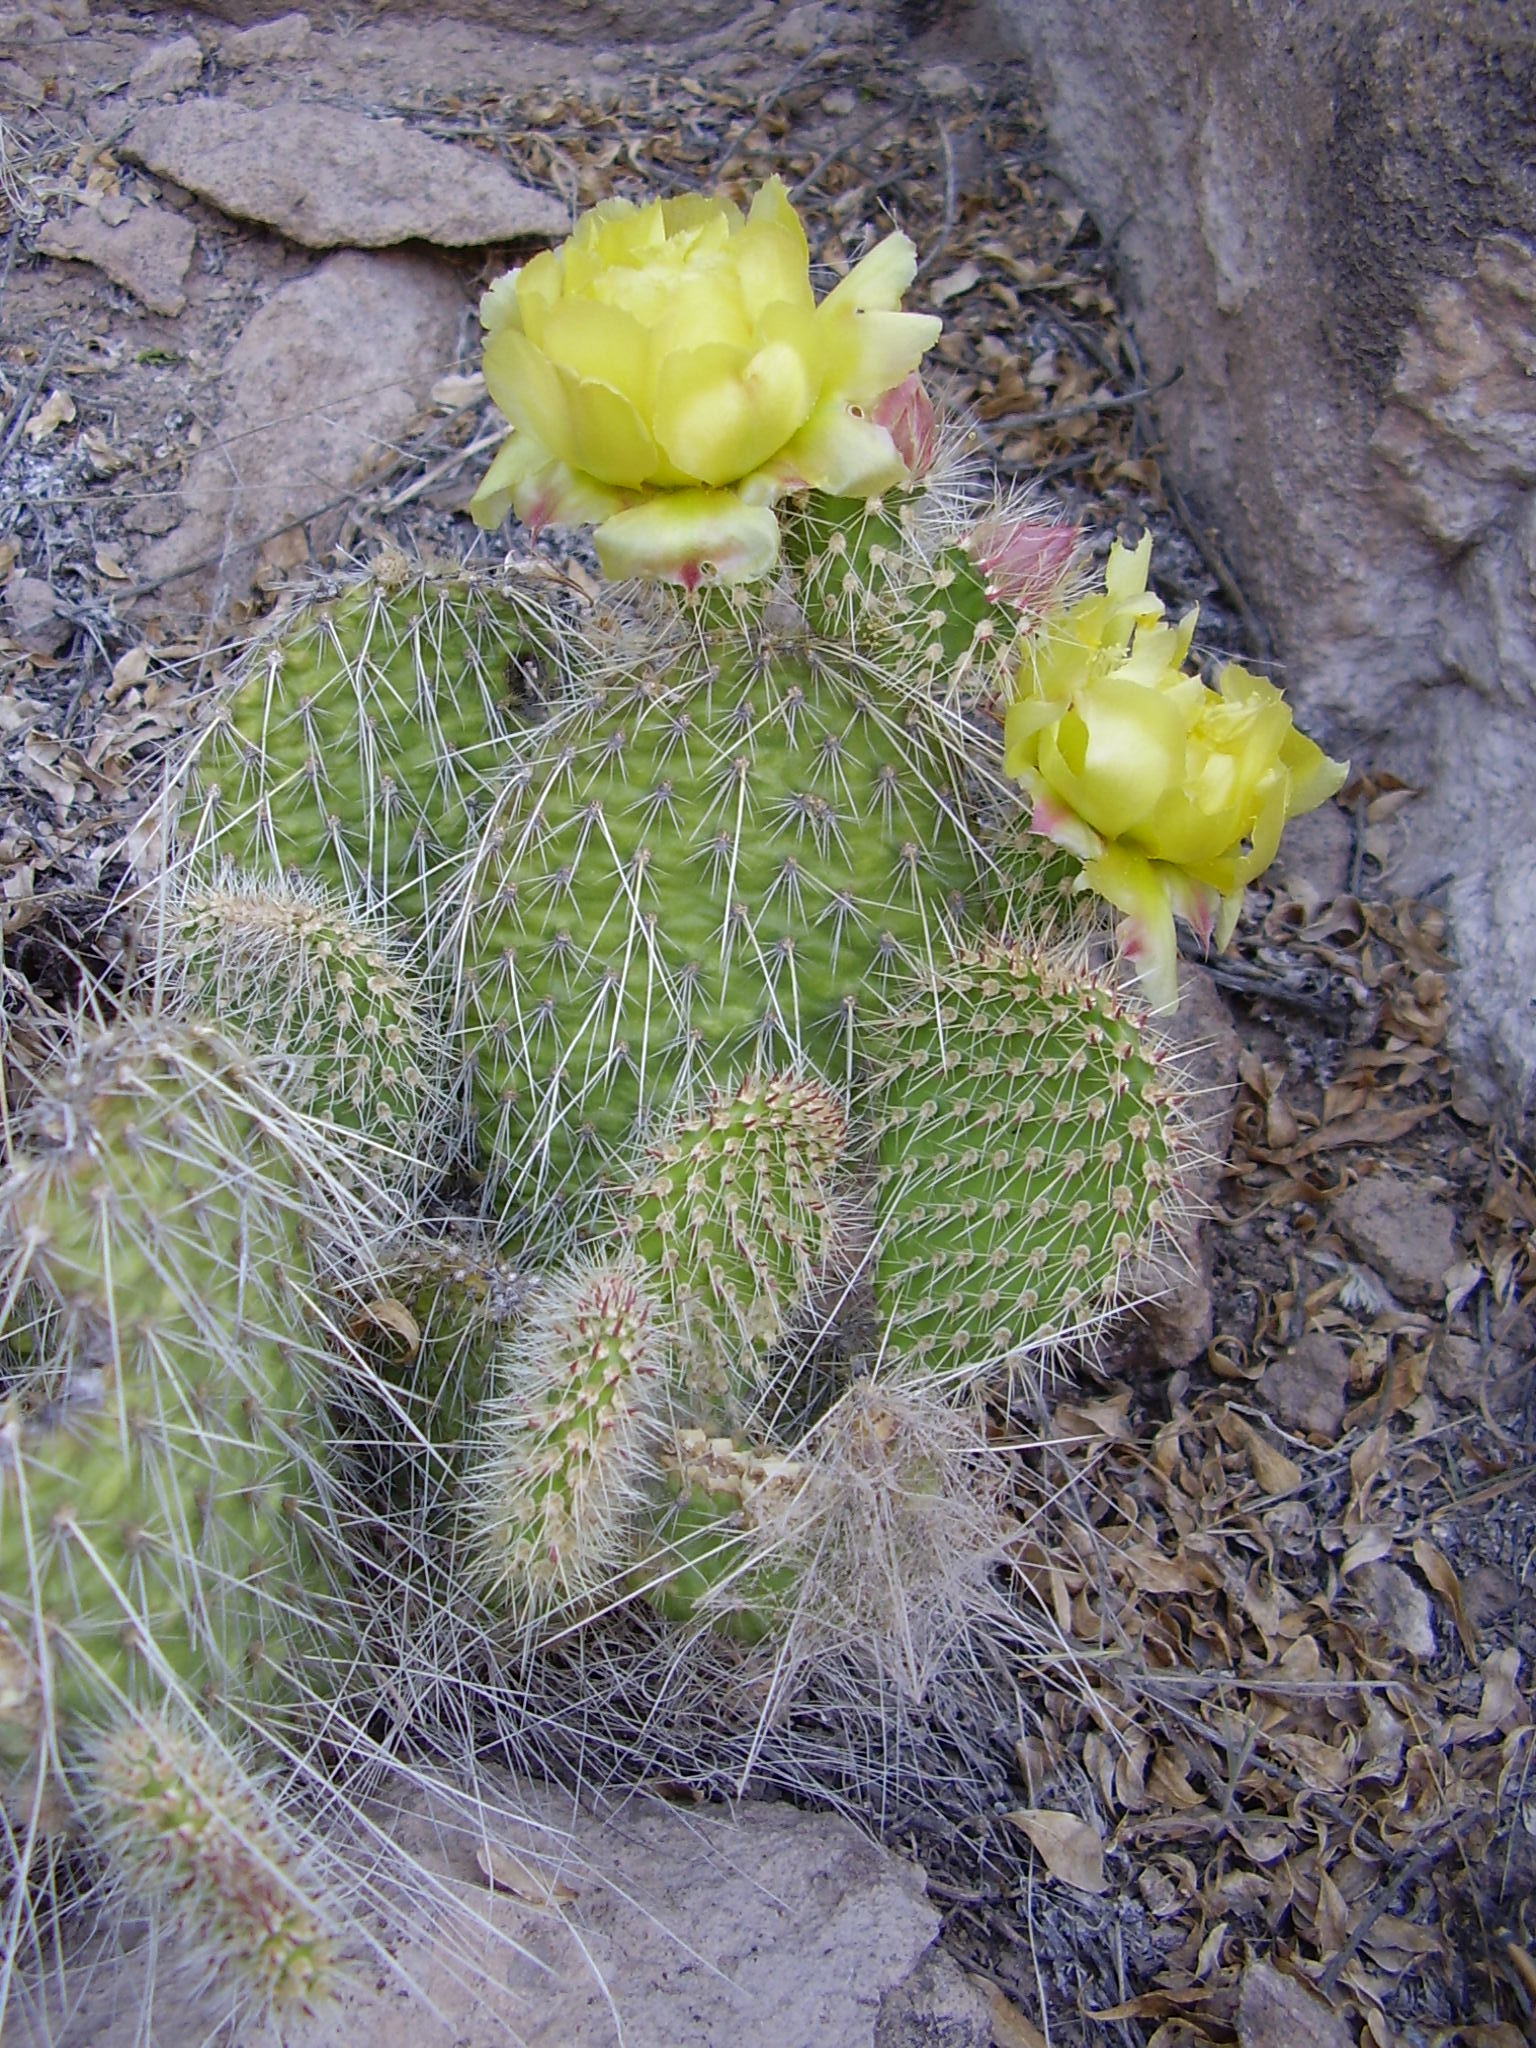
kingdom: Plantae
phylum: Tracheophyta
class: Magnoliopsida
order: Caryophyllales
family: Cactaceae
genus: Opuntia
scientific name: Opuntia polyacantha
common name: Plains prickly-pear
